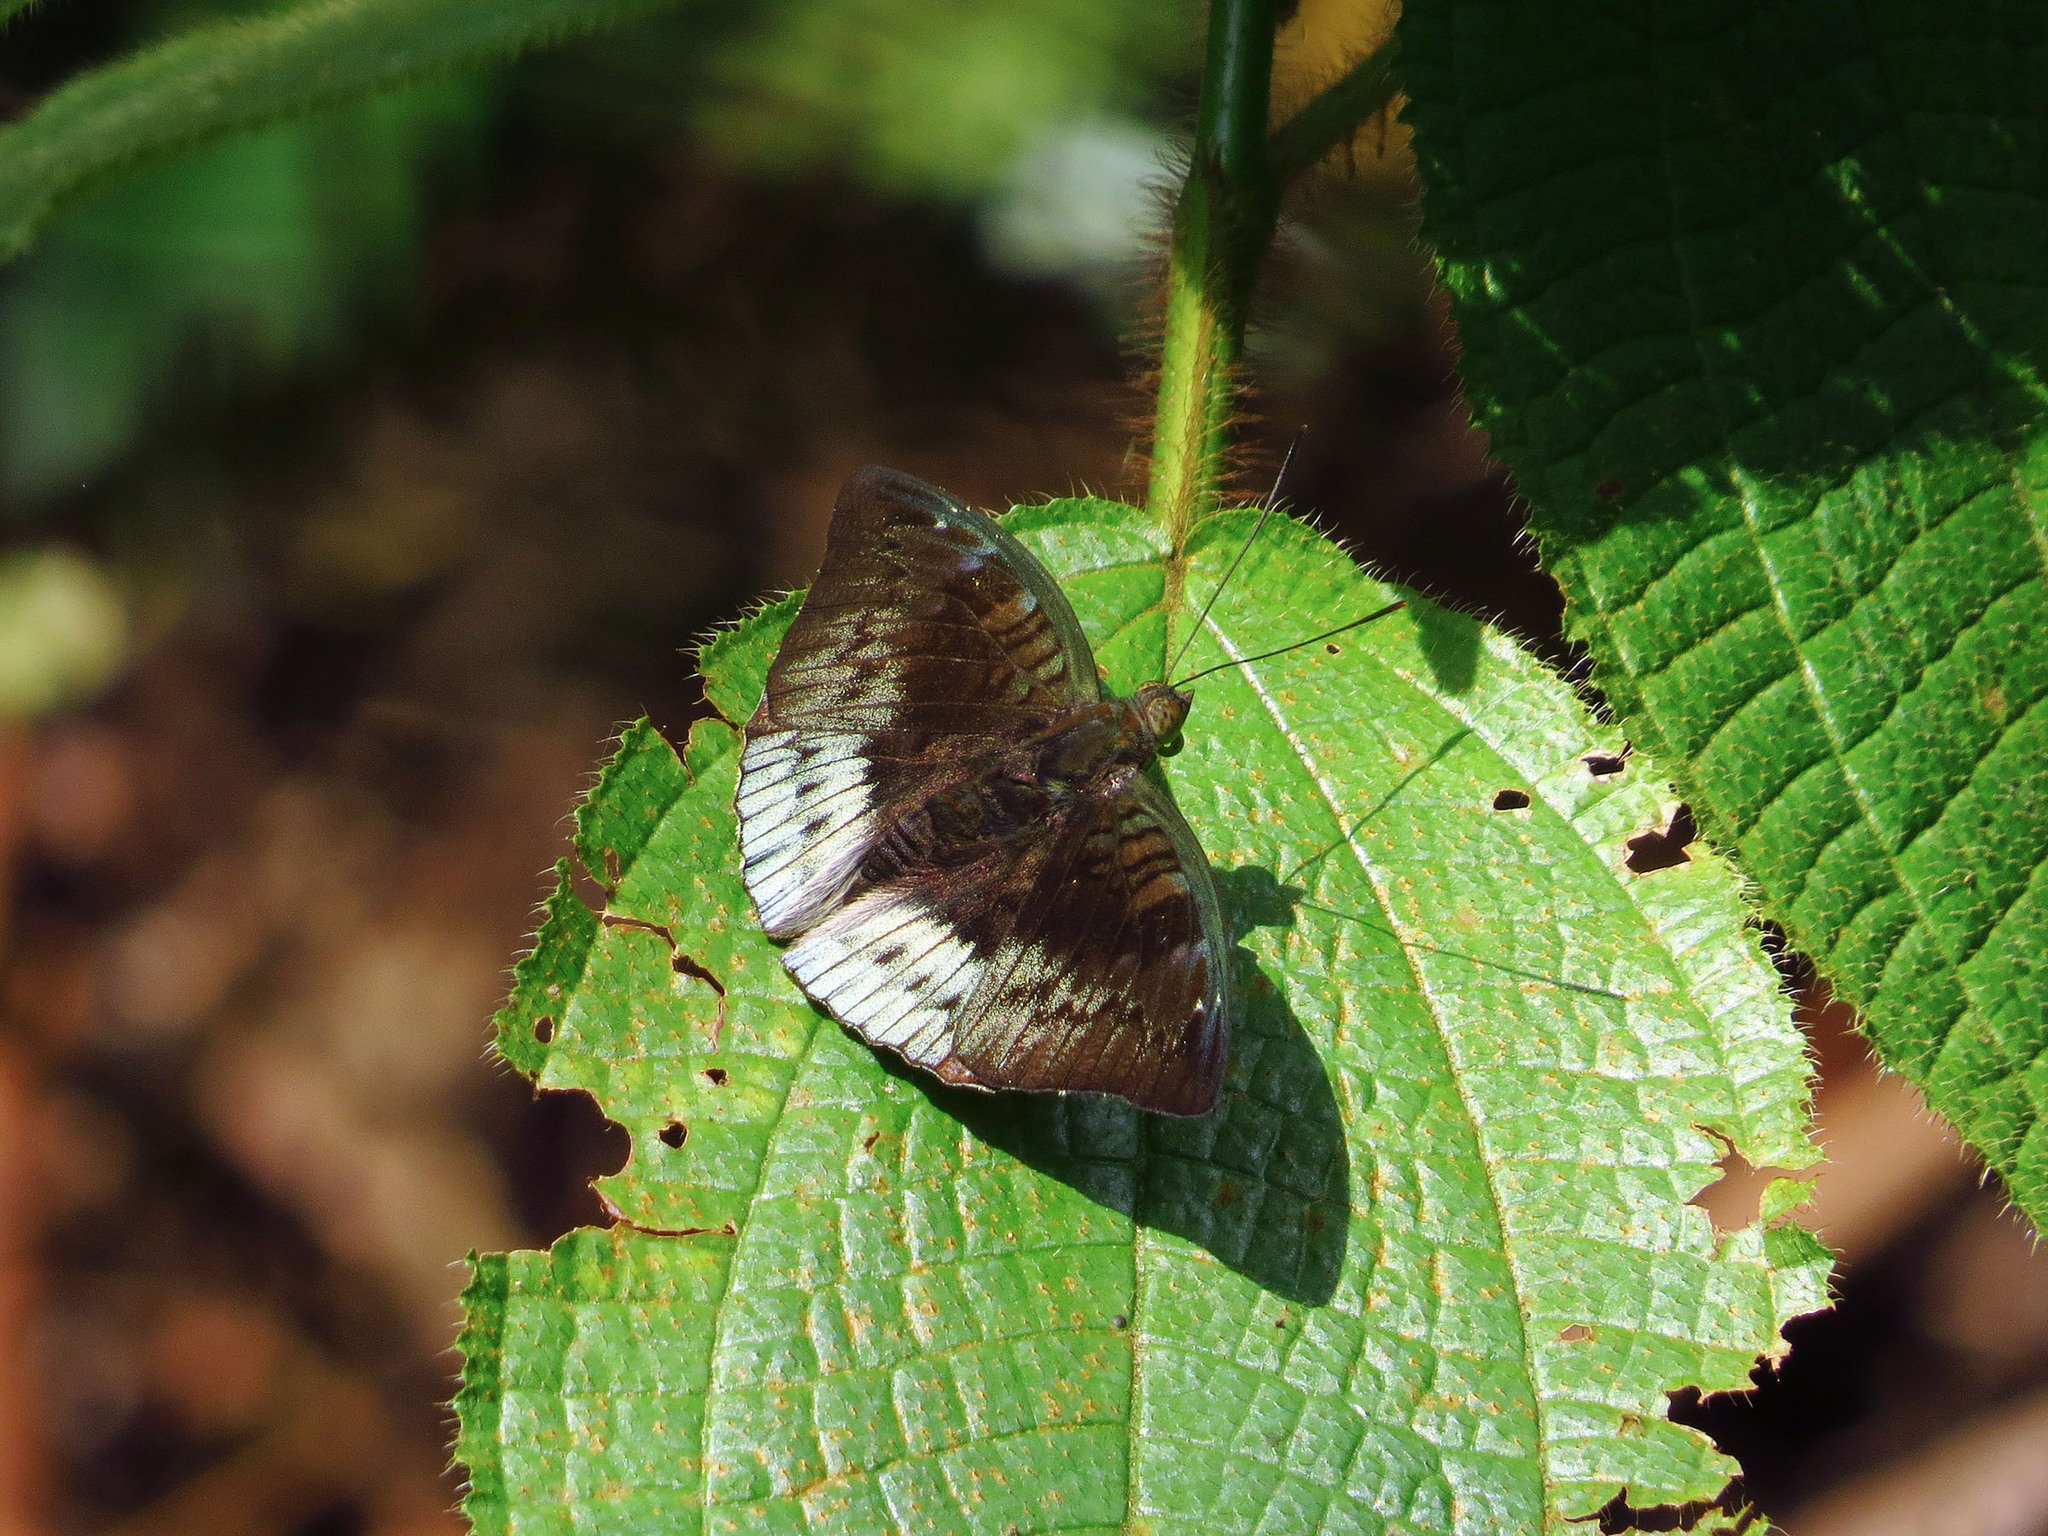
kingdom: Animalia
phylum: Arthropoda
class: Insecta
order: Lepidoptera
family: Nymphalidae
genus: Euthalia
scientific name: Euthalia monina
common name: Powdered baron
